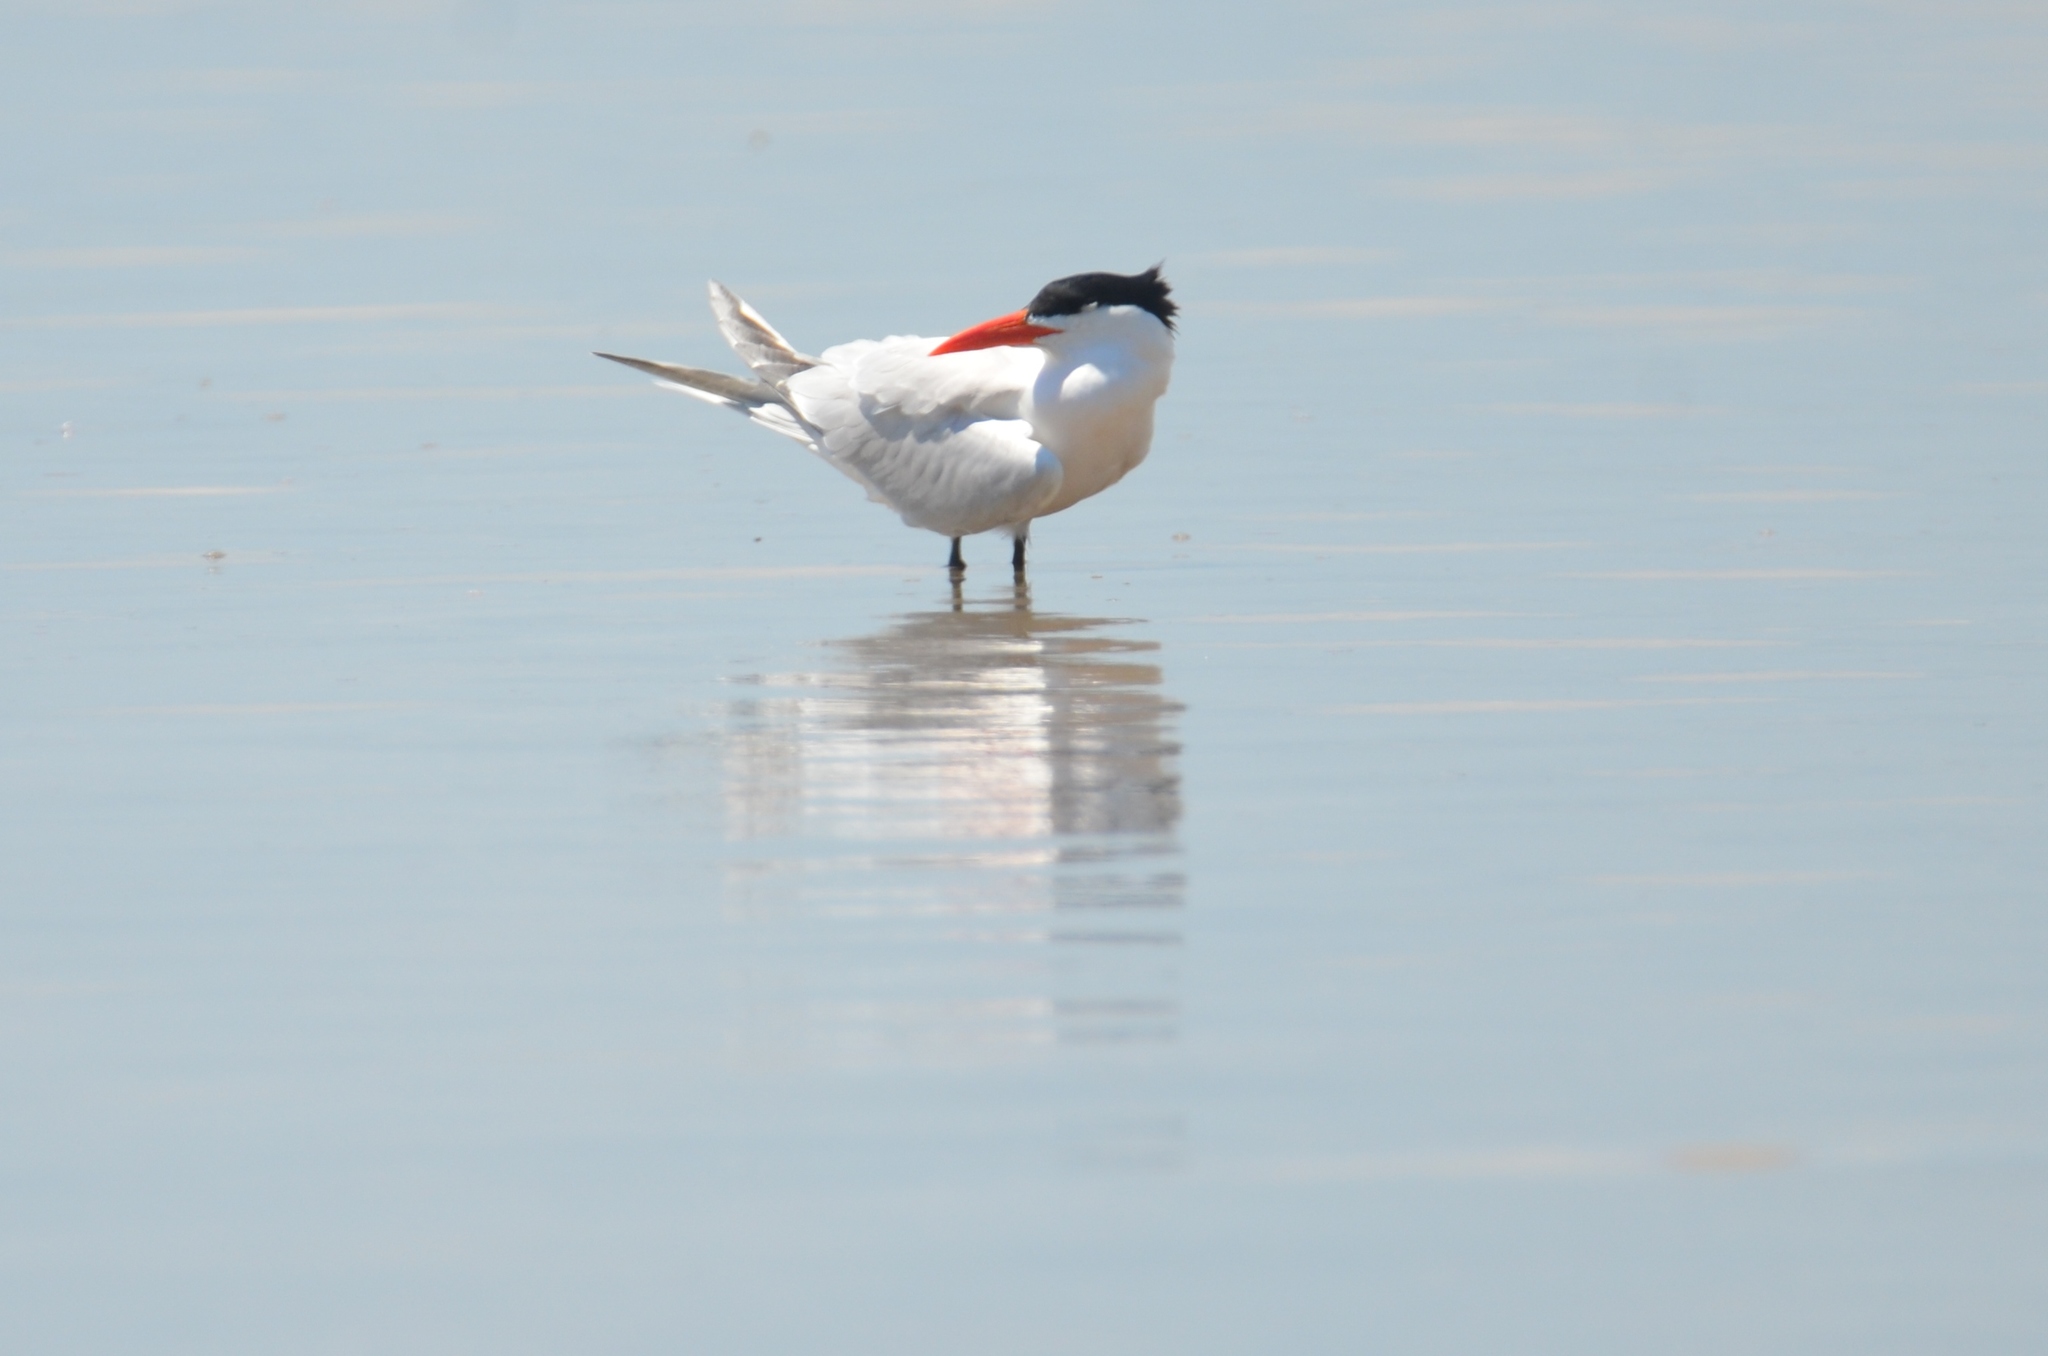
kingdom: Animalia
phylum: Chordata
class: Aves
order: Charadriiformes
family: Laridae
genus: Thalasseus
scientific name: Thalasseus maximus
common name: Royal tern
